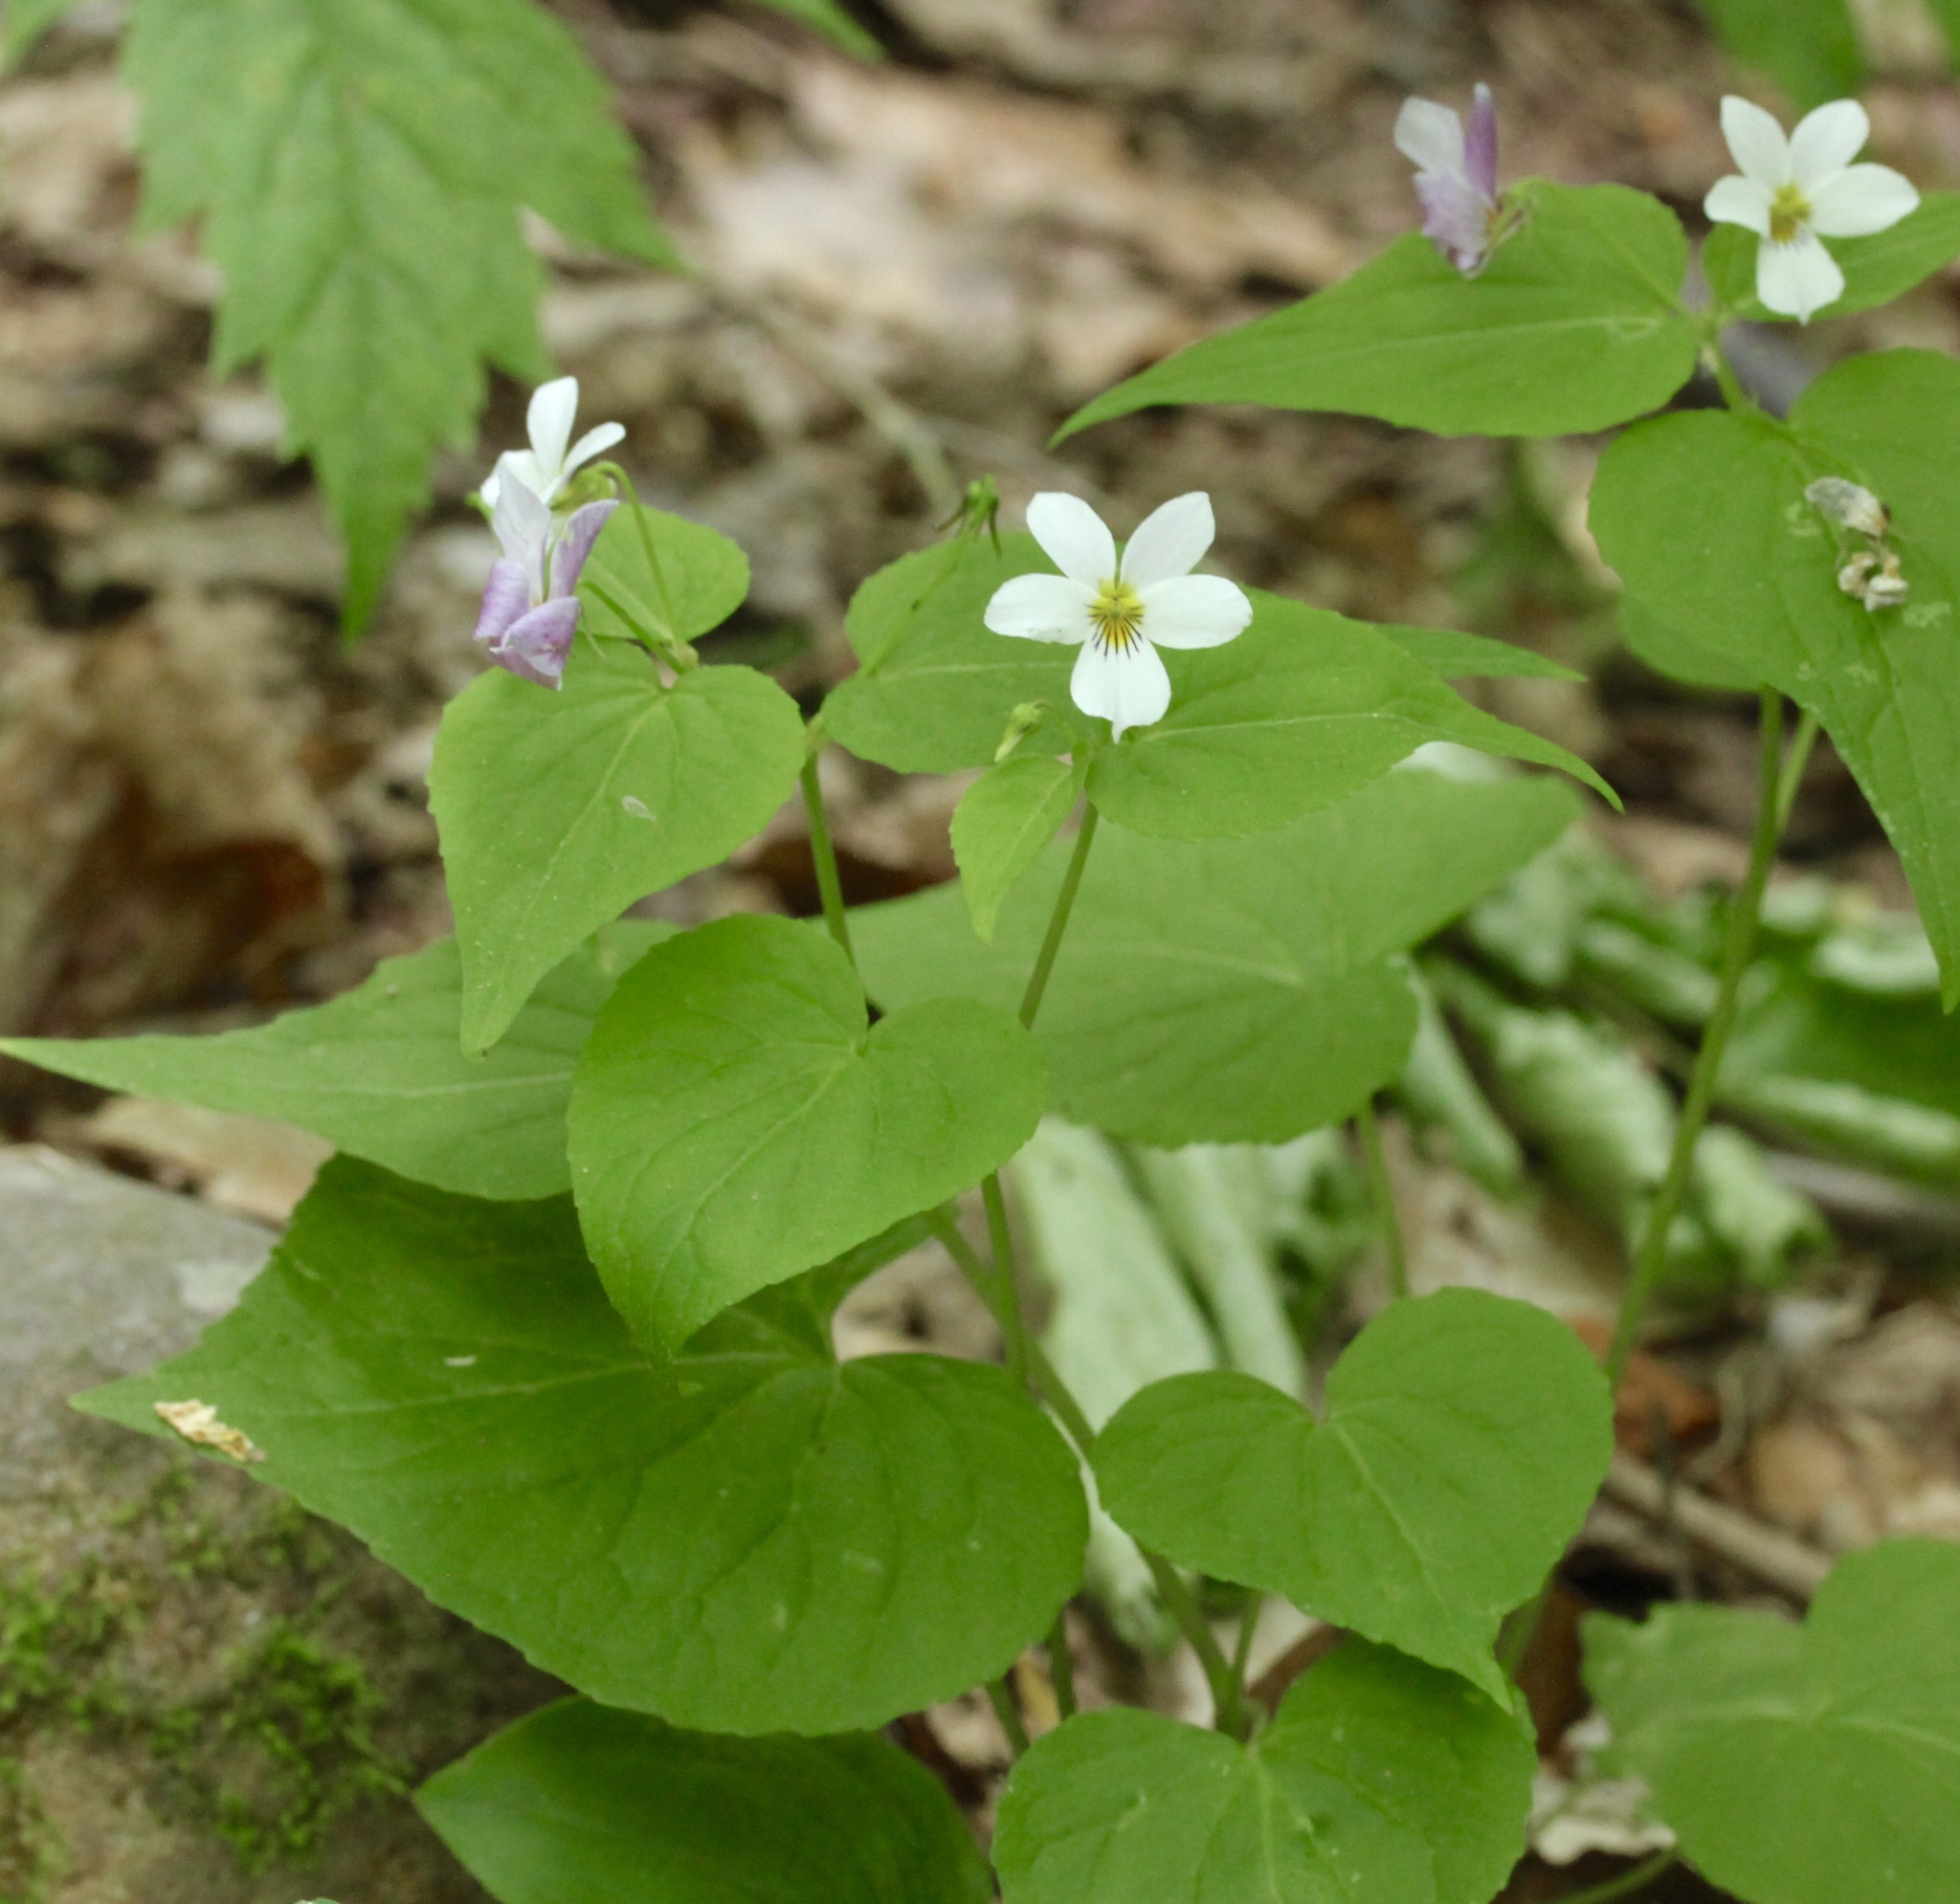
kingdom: Plantae
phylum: Tracheophyta
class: Magnoliopsida
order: Malpighiales
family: Violaceae
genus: Viola
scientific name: Viola canadensis
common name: Canada violet
